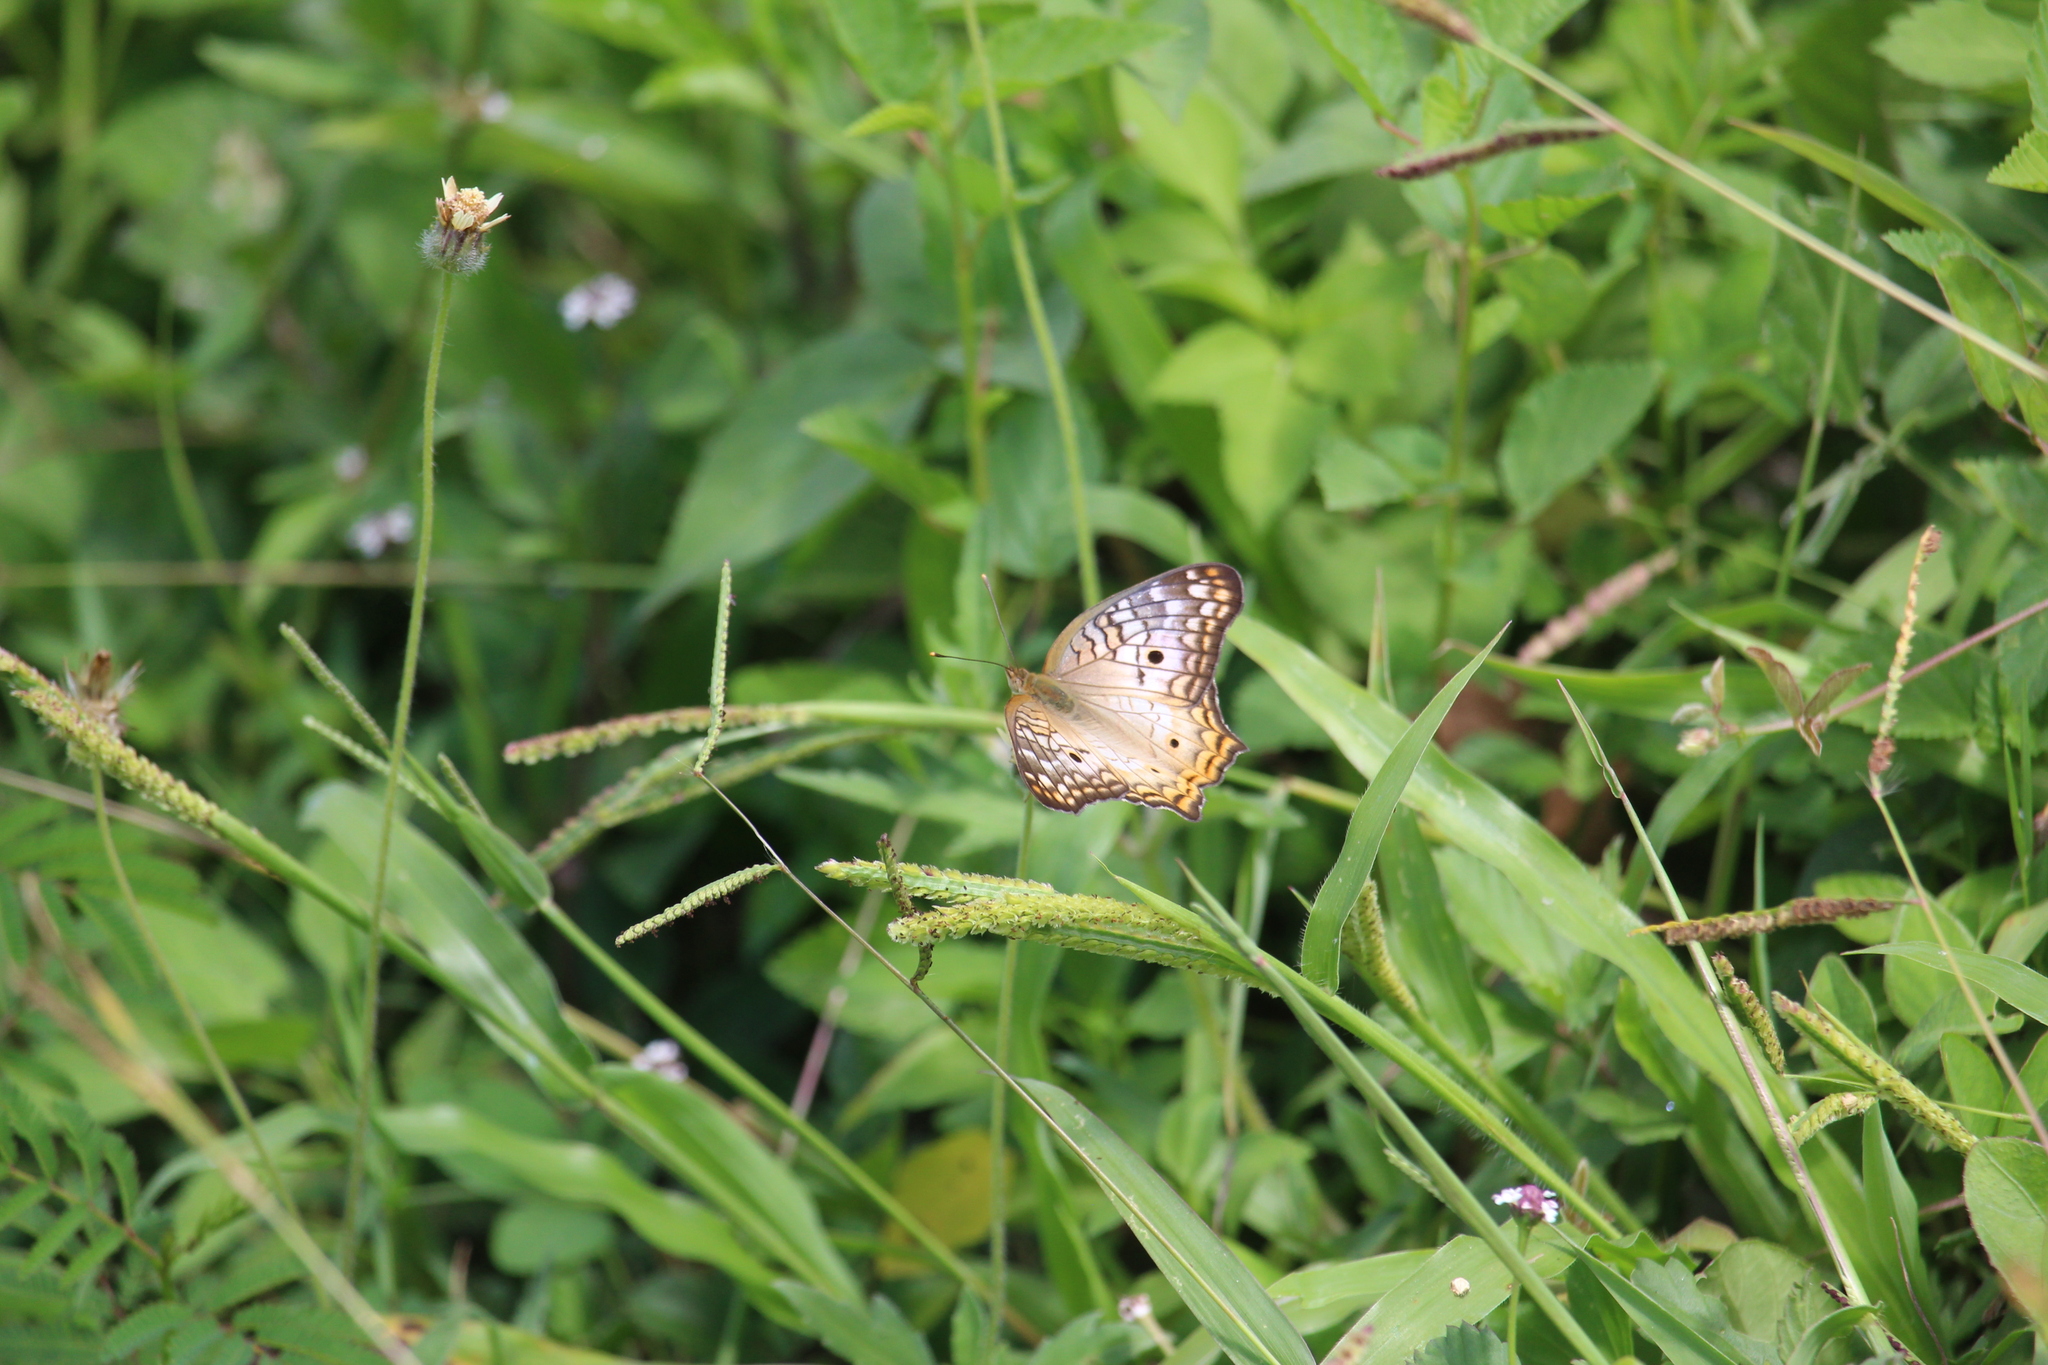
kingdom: Animalia
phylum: Arthropoda
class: Insecta
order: Lepidoptera
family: Nymphalidae
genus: Anartia
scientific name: Anartia jatrophae
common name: White peacock
